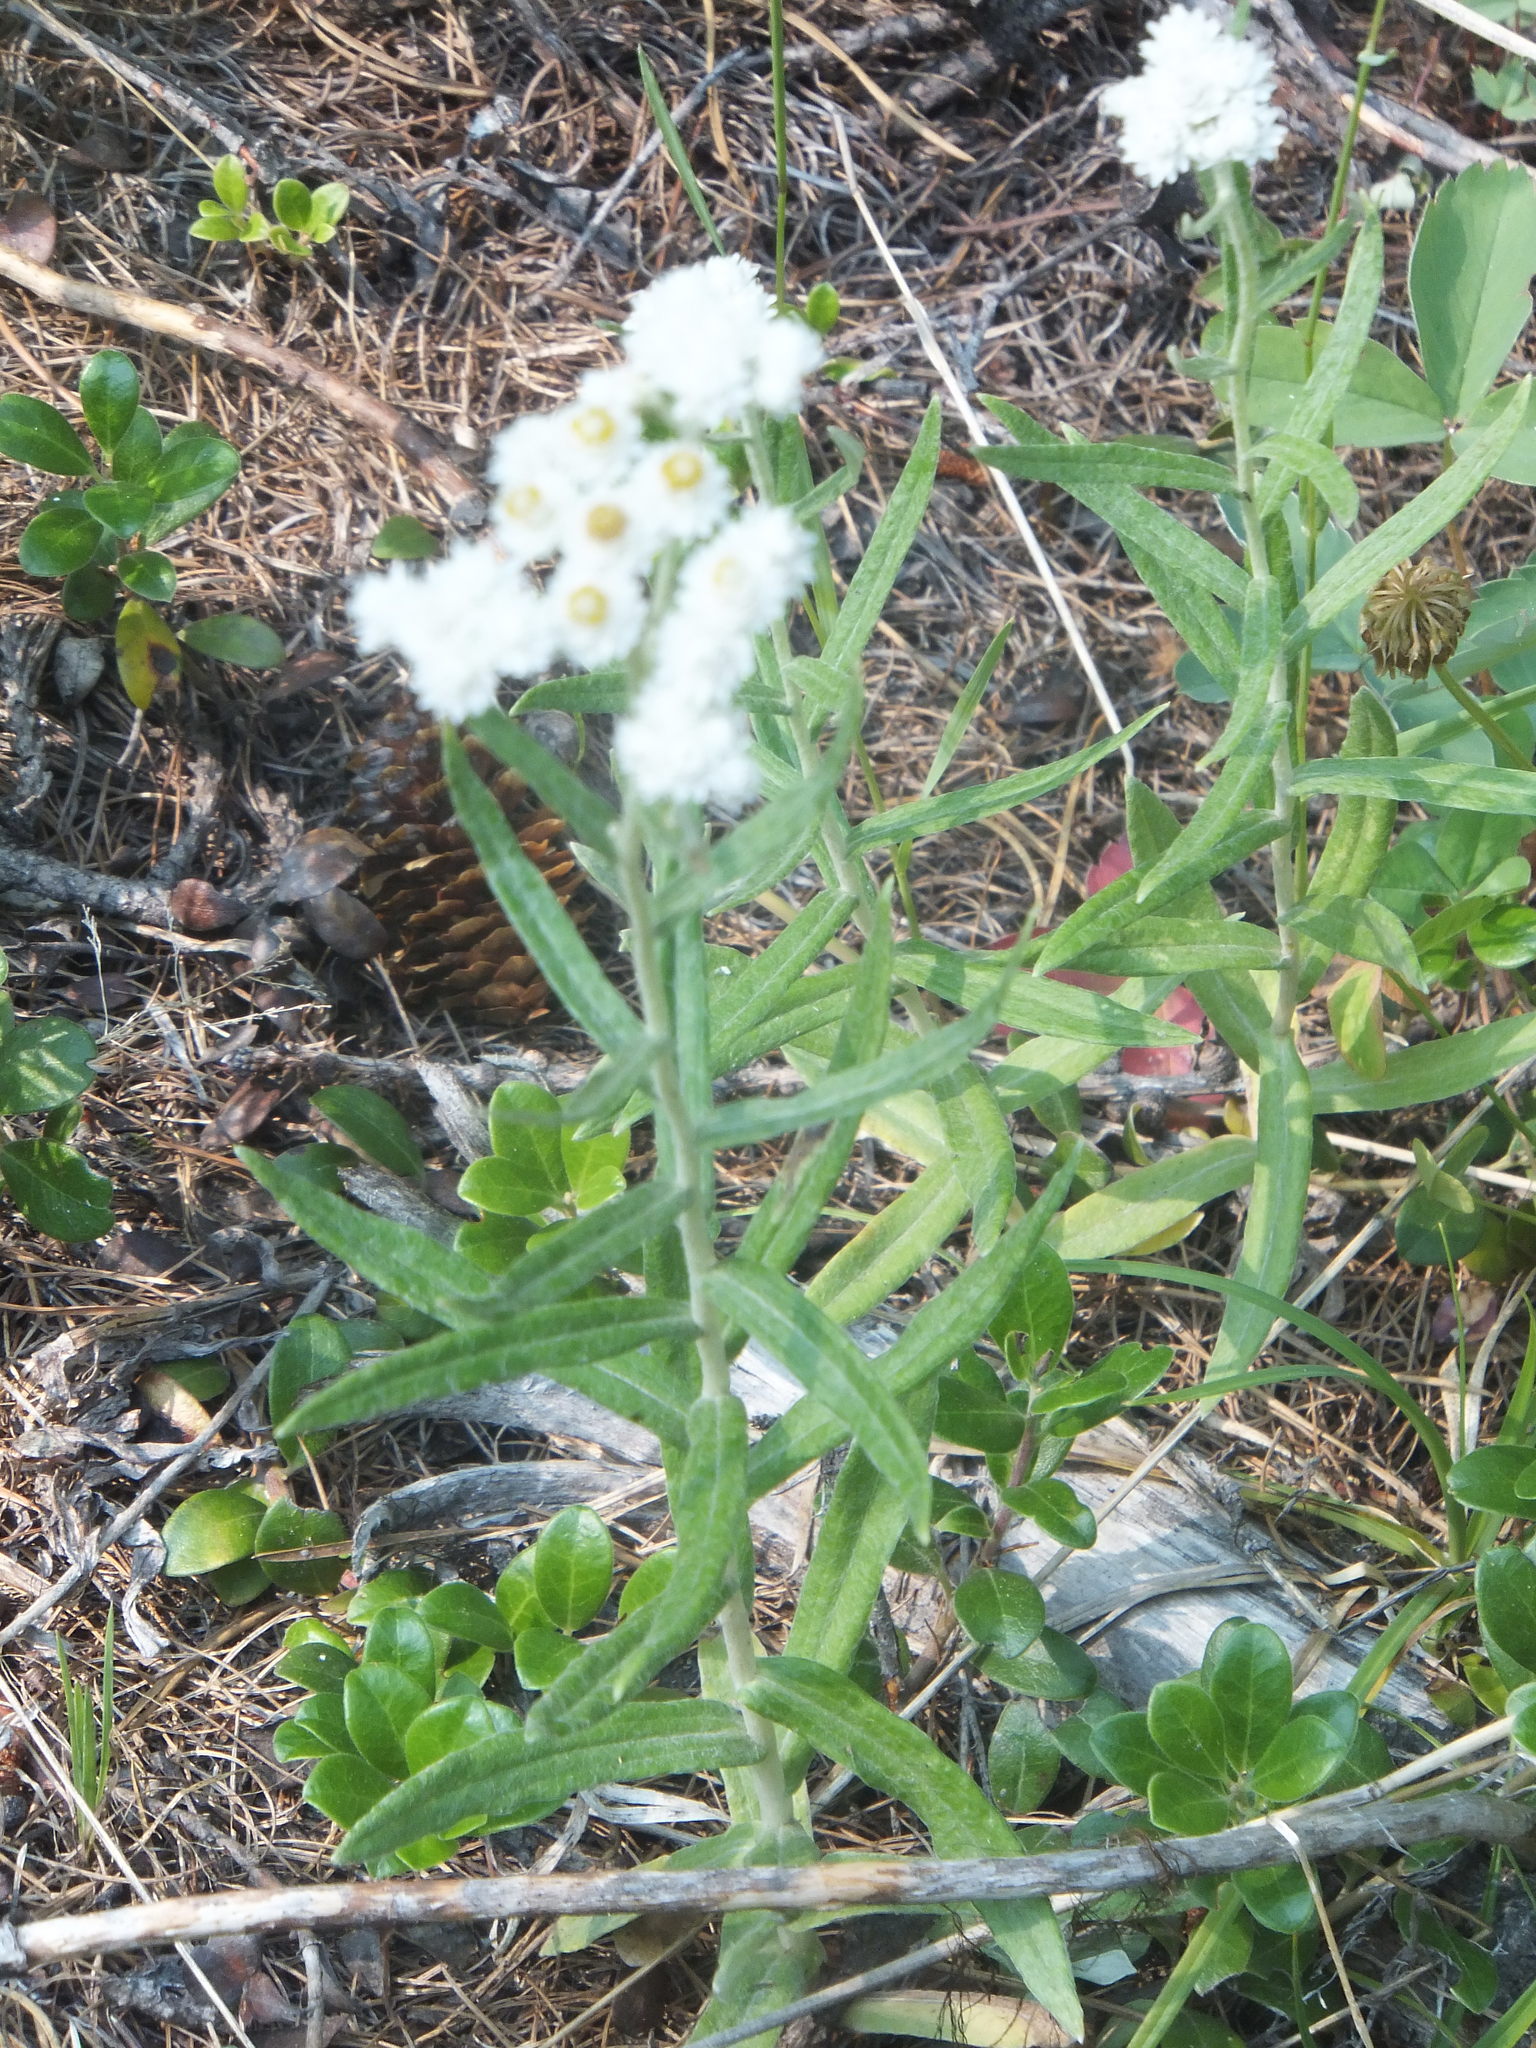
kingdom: Plantae
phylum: Tracheophyta
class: Magnoliopsida
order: Asterales
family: Asteraceae
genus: Anaphalis
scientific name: Anaphalis margaritacea
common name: Pearly everlasting
